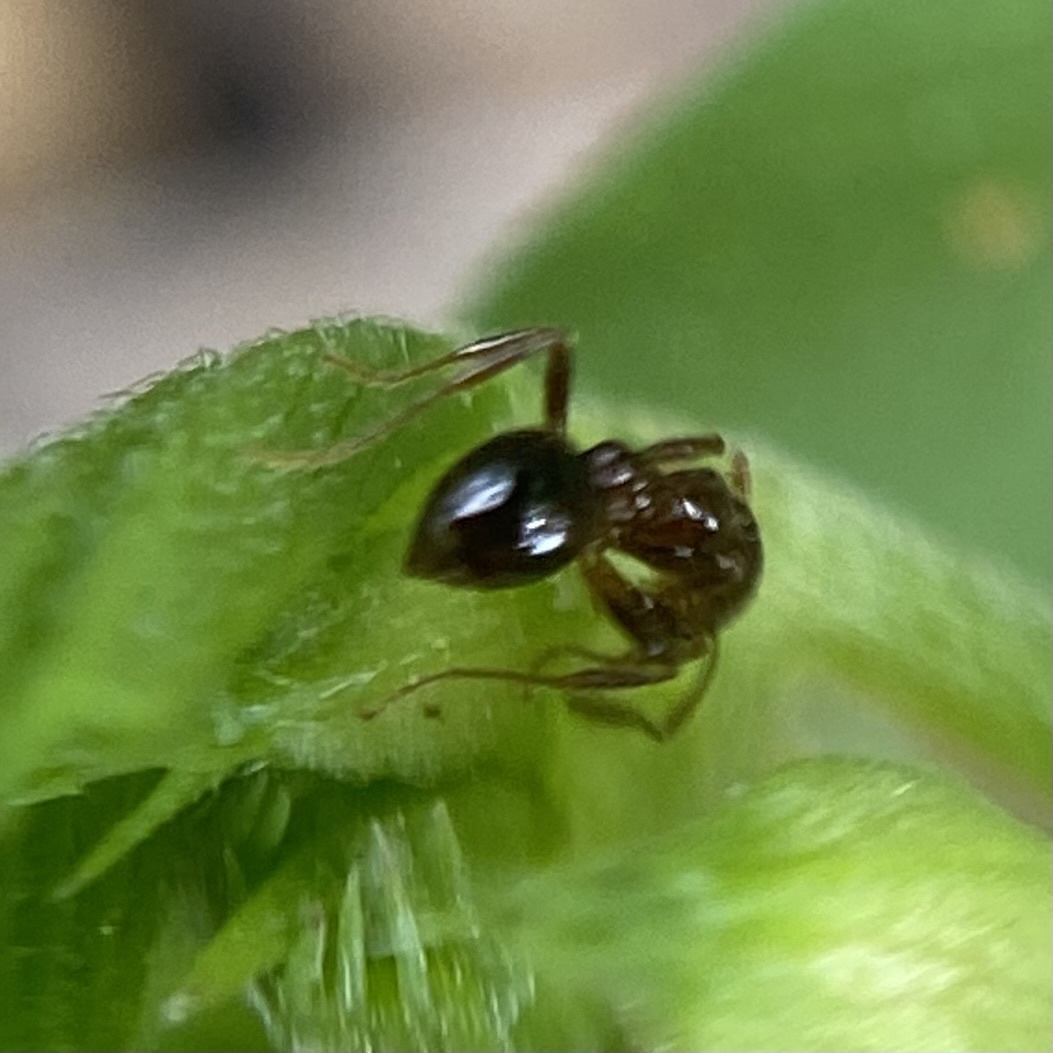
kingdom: Animalia
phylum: Arthropoda
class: Insecta
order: Hymenoptera
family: Formicidae
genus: Solenopsis
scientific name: Solenopsis invicta
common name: Red imported fire ant
